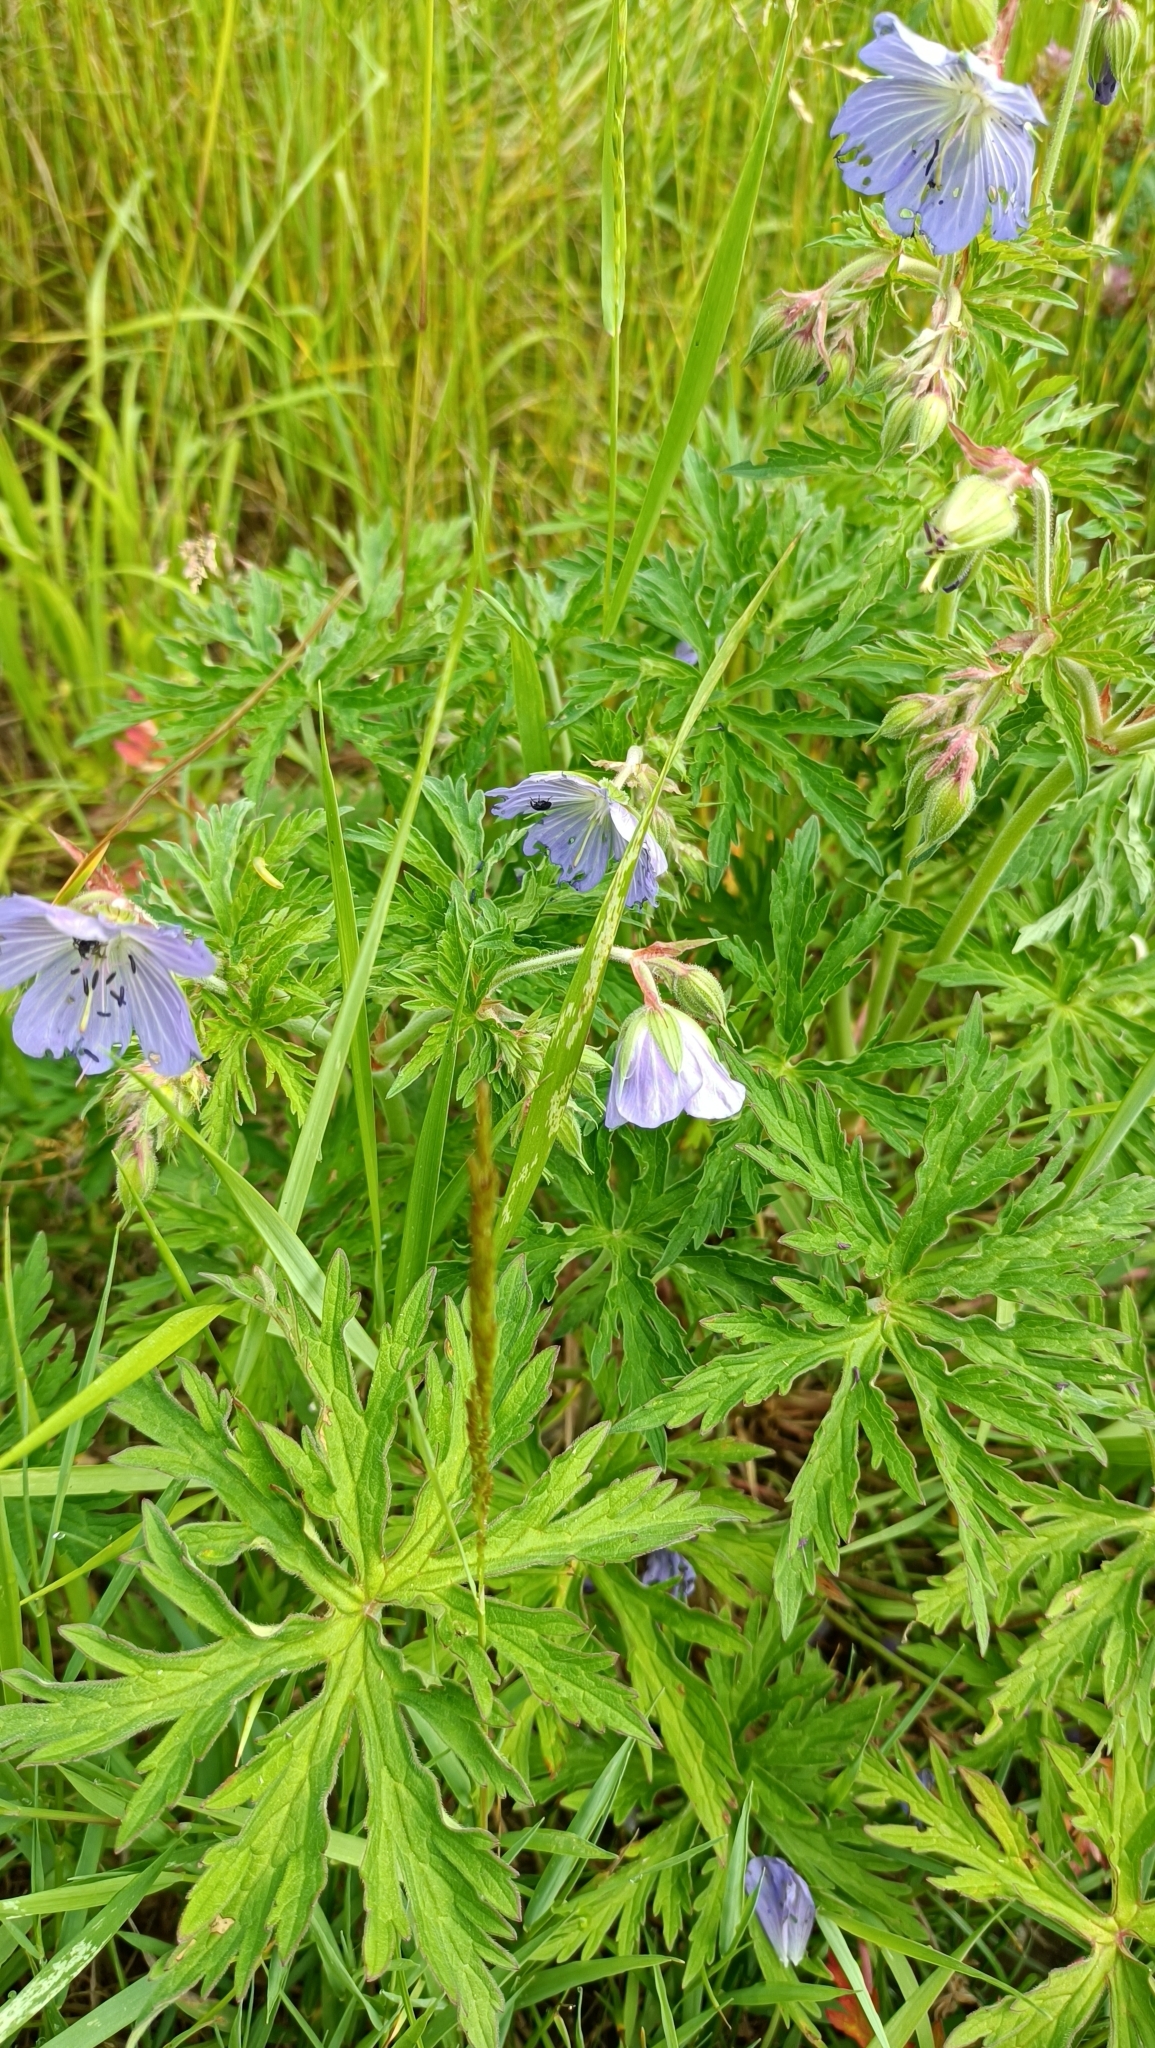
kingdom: Plantae
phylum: Tracheophyta
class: Magnoliopsida
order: Geraniales
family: Geraniaceae
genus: Geranium
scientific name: Geranium pratense
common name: Meadow crane's-bill
